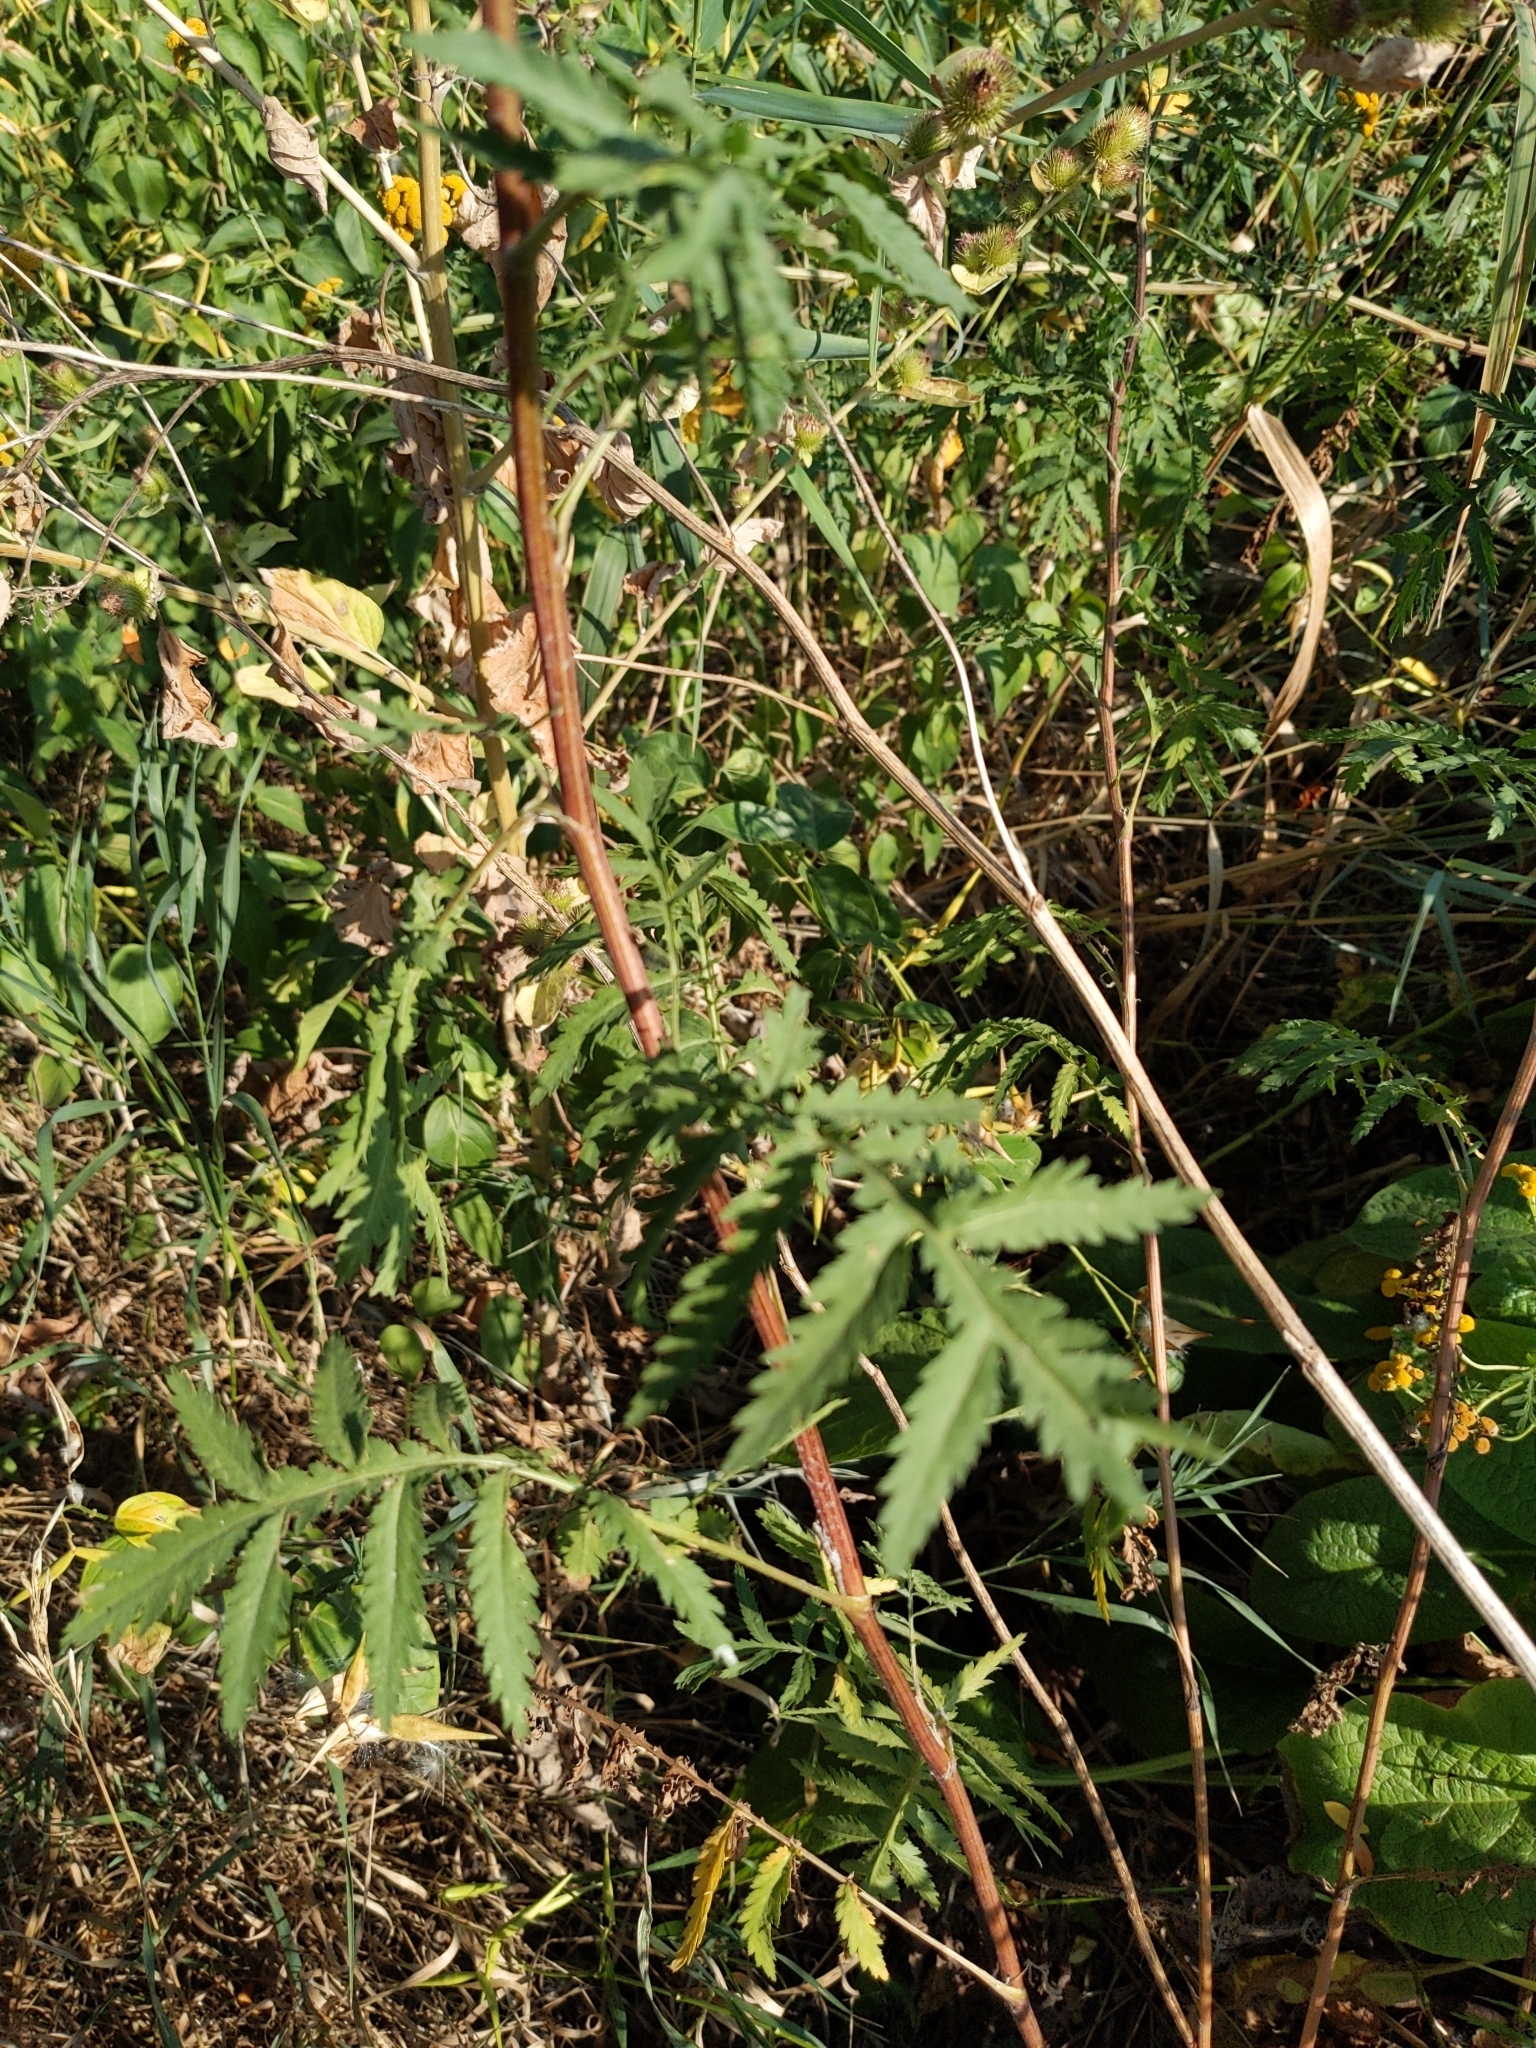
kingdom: Plantae
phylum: Tracheophyta
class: Magnoliopsida
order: Asterales
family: Asteraceae
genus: Tanacetum
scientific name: Tanacetum vulgare
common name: Common tansy
